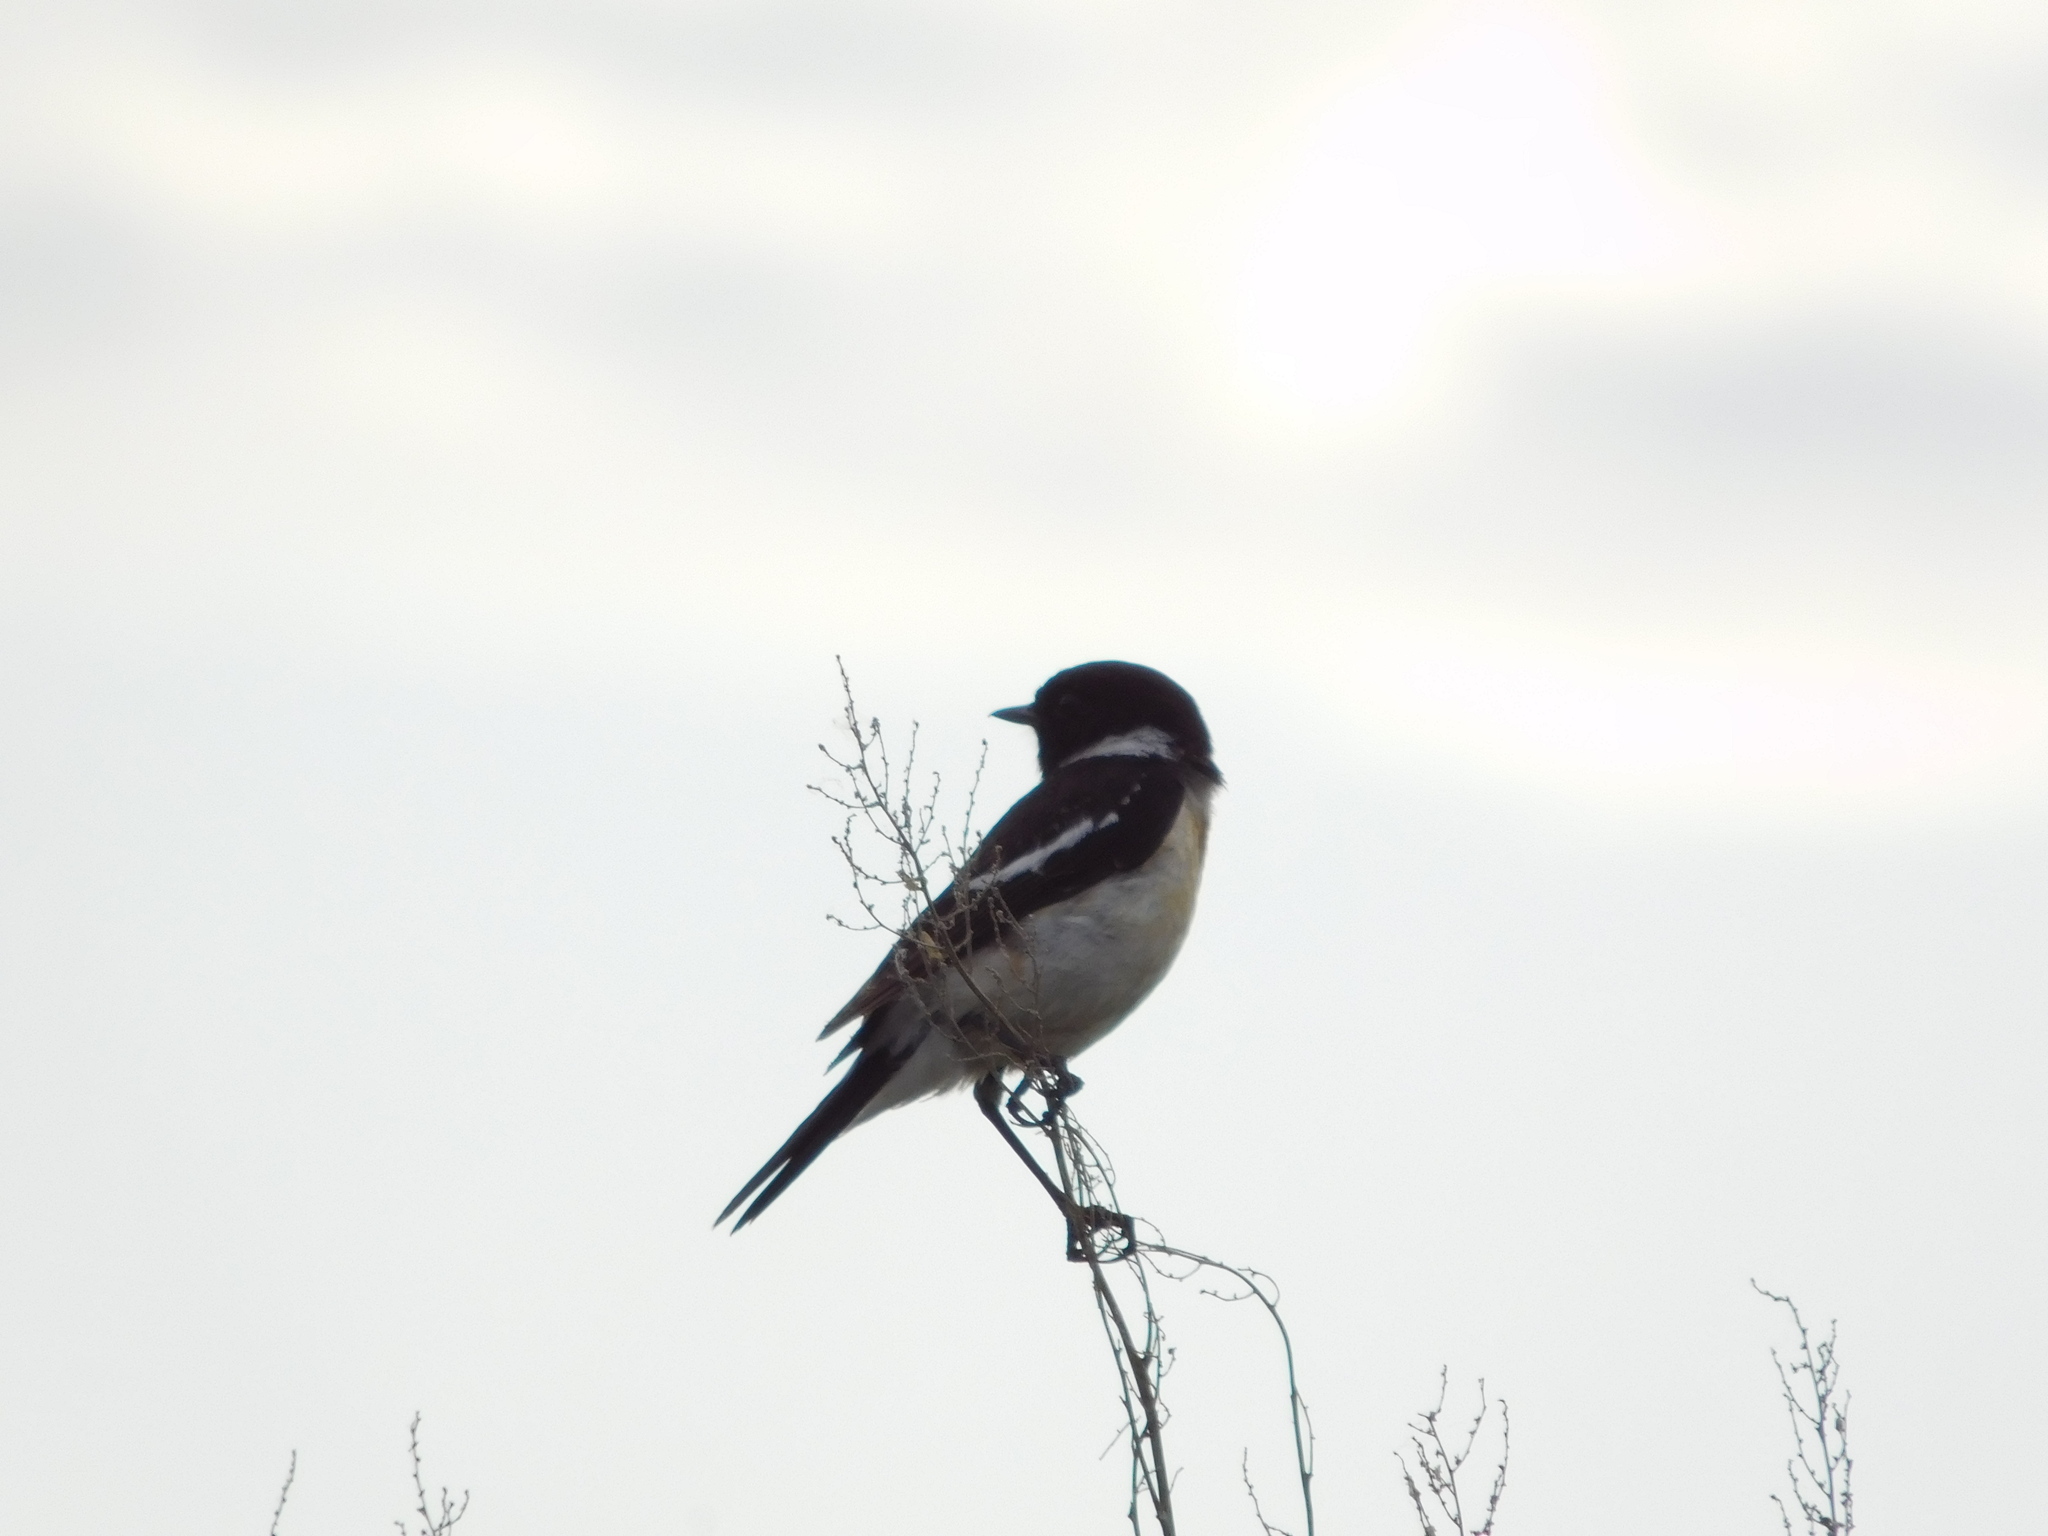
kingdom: Animalia
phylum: Chordata
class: Aves
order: Passeriformes
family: Muscicapidae
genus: Saxicola
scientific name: Saxicola maurus
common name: Siberian stonechat
